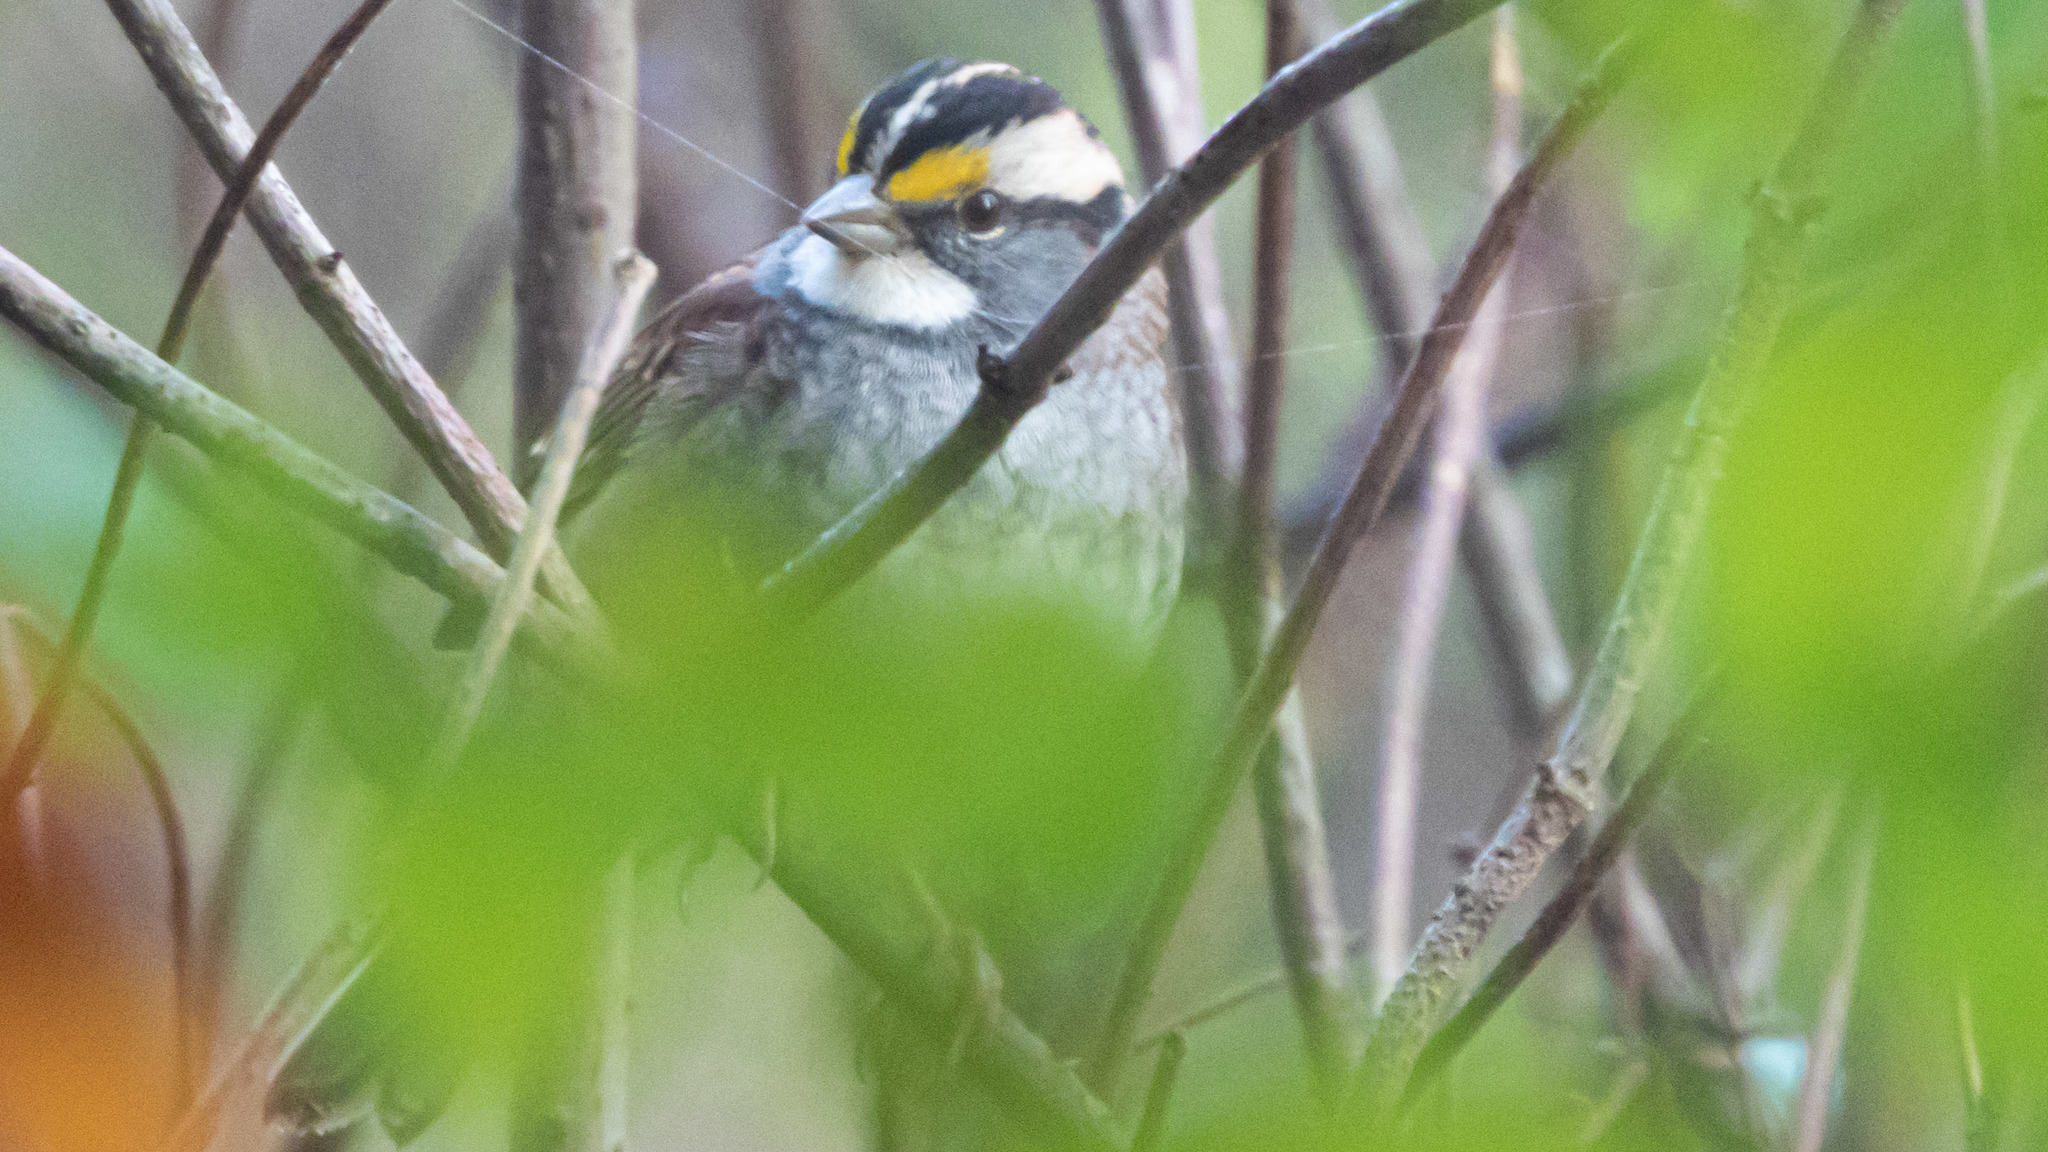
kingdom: Animalia
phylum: Chordata
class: Aves
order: Passeriformes
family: Passerellidae
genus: Zonotrichia
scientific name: Zonotrichia albicollis
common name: White-throated sparrow
